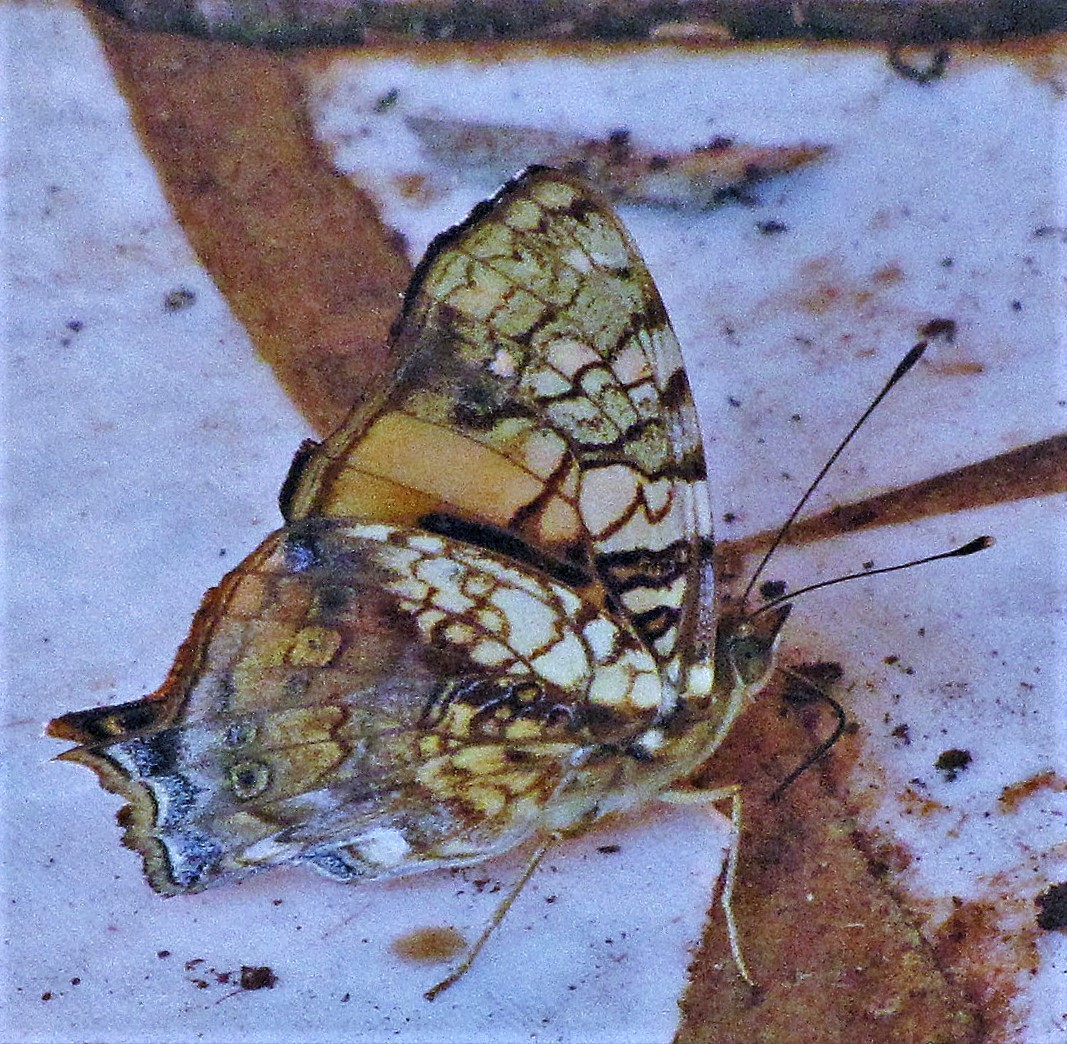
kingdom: Animalia
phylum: Arthropoda
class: Insecta
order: Lepidoptera
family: Nymphalidae
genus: Hypanartia
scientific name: Hypanartia lethe
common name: Orange mapwing
